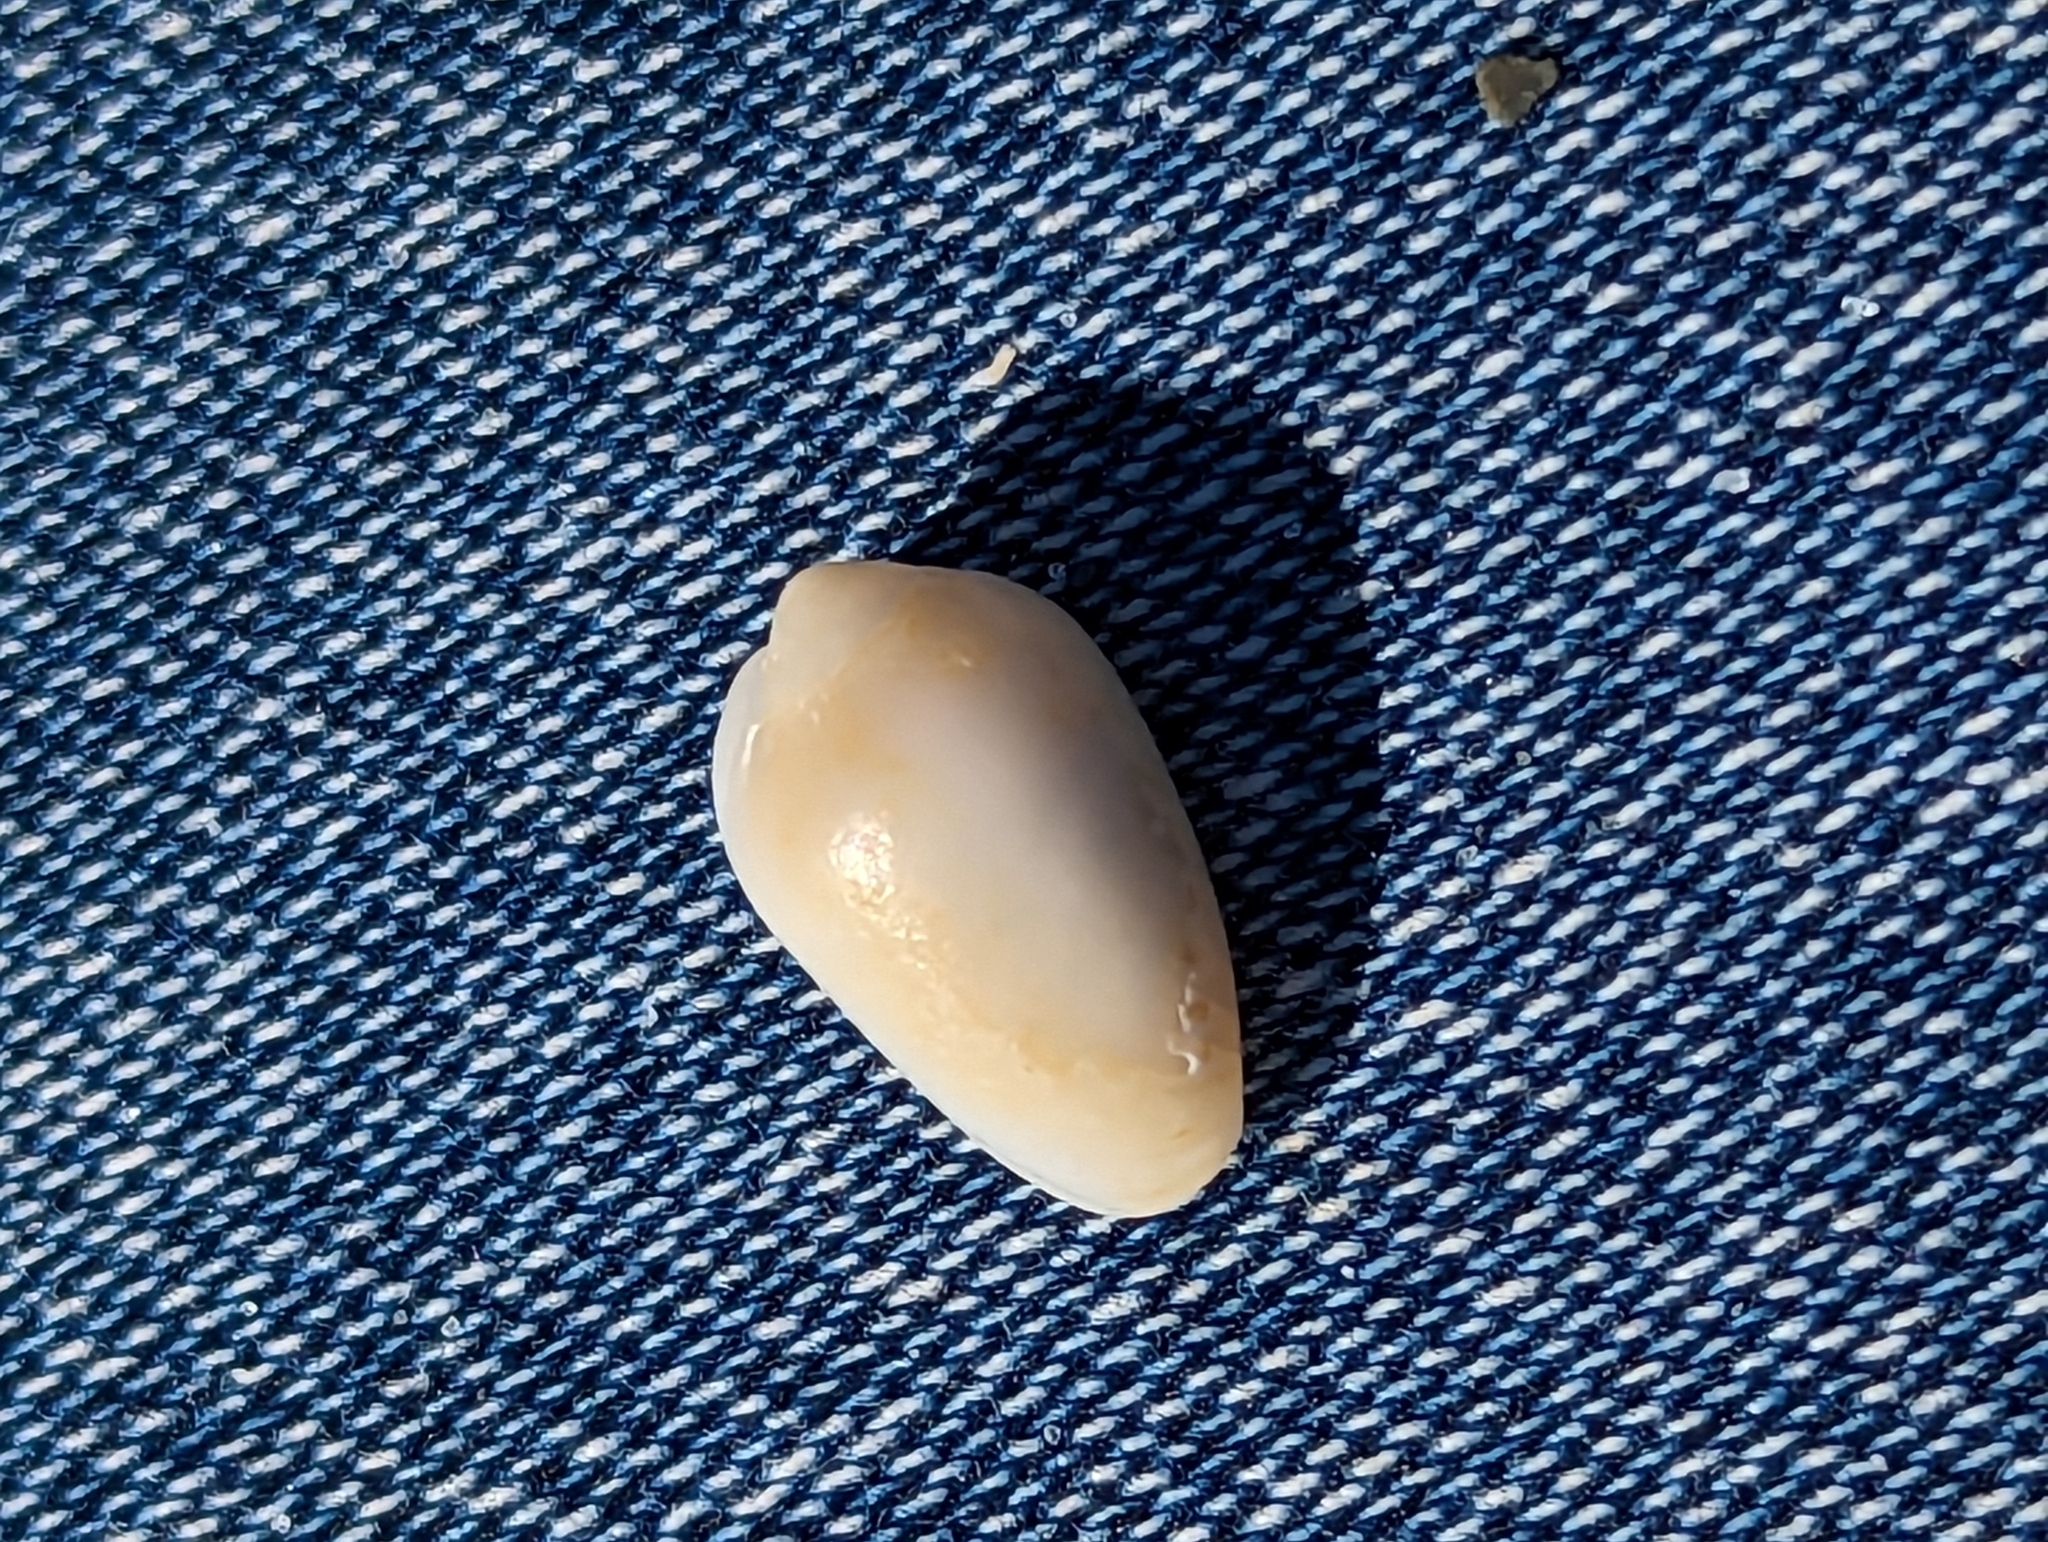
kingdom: Animalia
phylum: Mollusca
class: Gastropoda
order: Neogastropoda
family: Marginellidae
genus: Prunum
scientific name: Prunum apicinum
